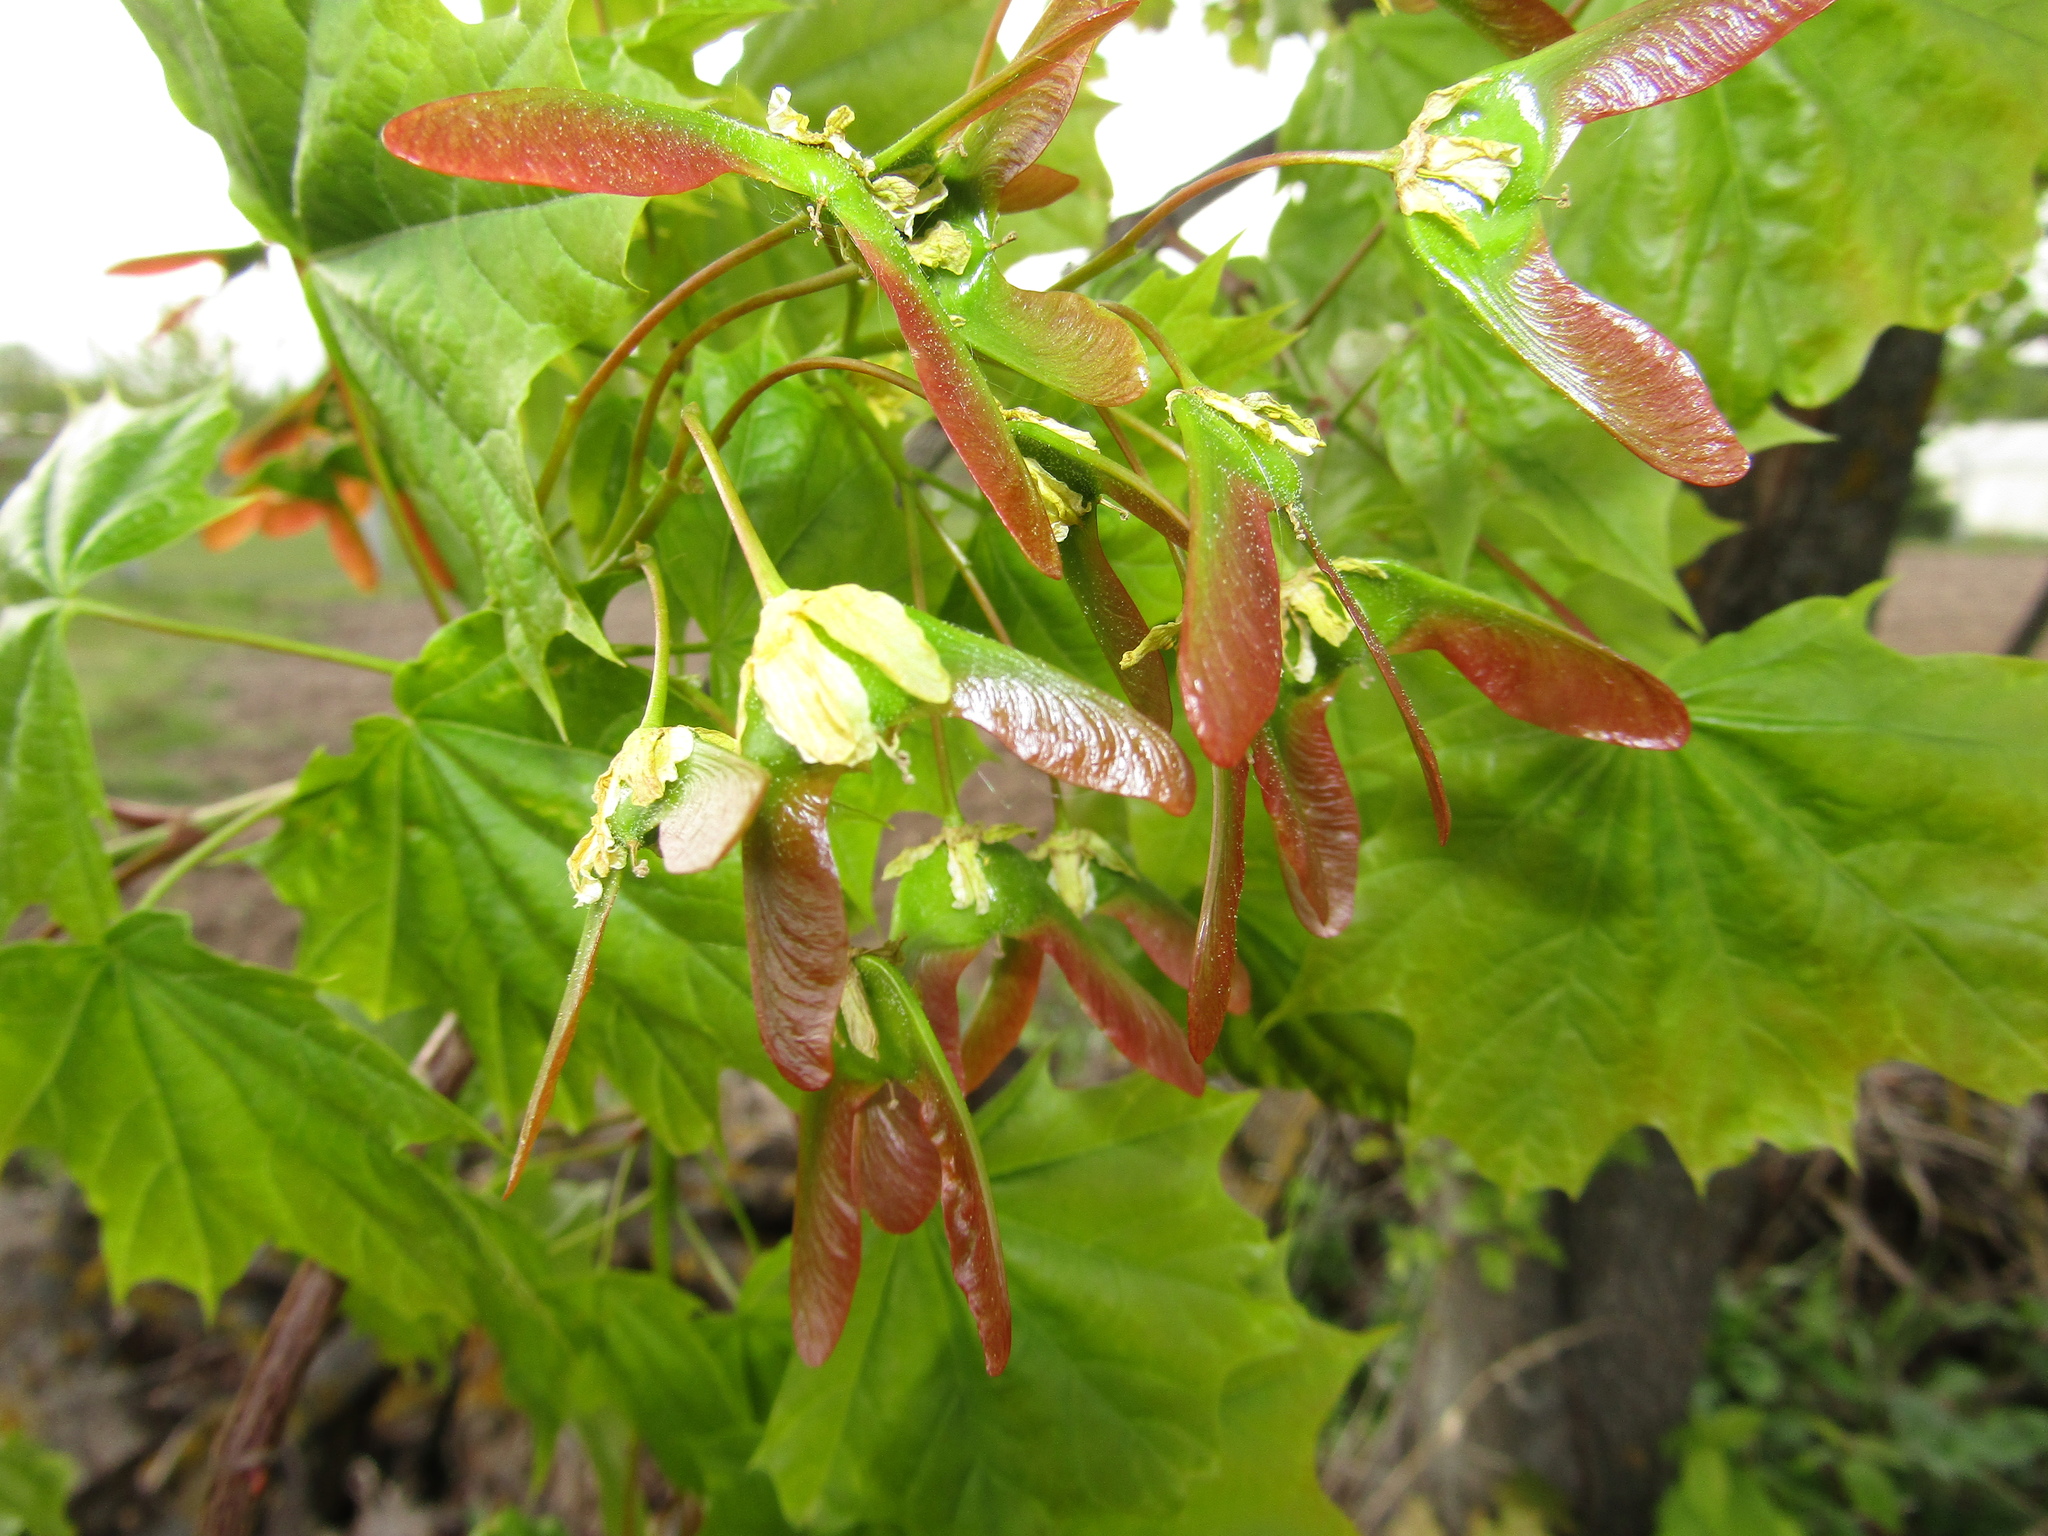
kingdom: Plantae
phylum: Tracheophyta
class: Magnoliopsida
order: Sapindales
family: Sapindaceae
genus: Acer
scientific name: Acer platanoides
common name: Norway maple
